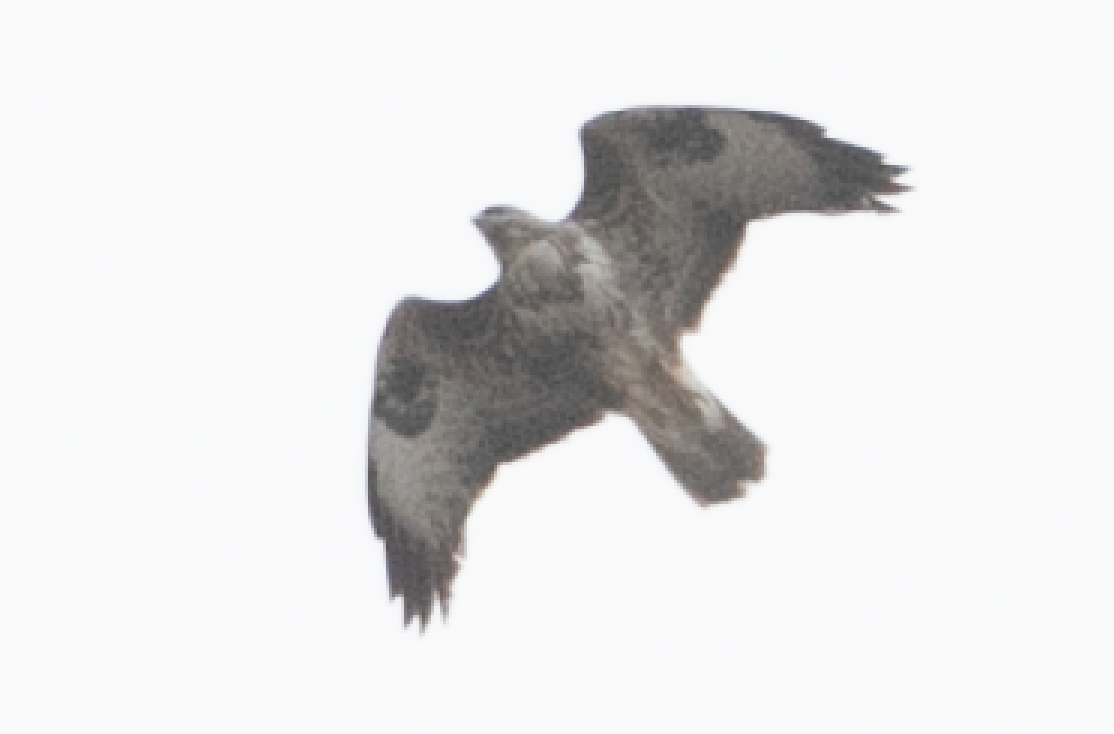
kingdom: Animalia
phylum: Chordata
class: Aves
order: Accipitriformes
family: Accipitridae
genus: Buteo
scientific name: Buteo buteo
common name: Common buzzard
